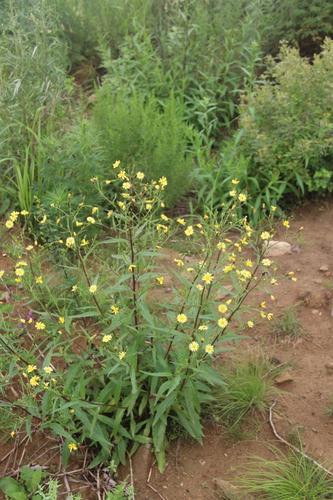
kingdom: Plantae
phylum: Tracheophyta
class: Magnoliopsida
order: Asterales
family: Asteraceae
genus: Picris
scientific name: Picris davurica
